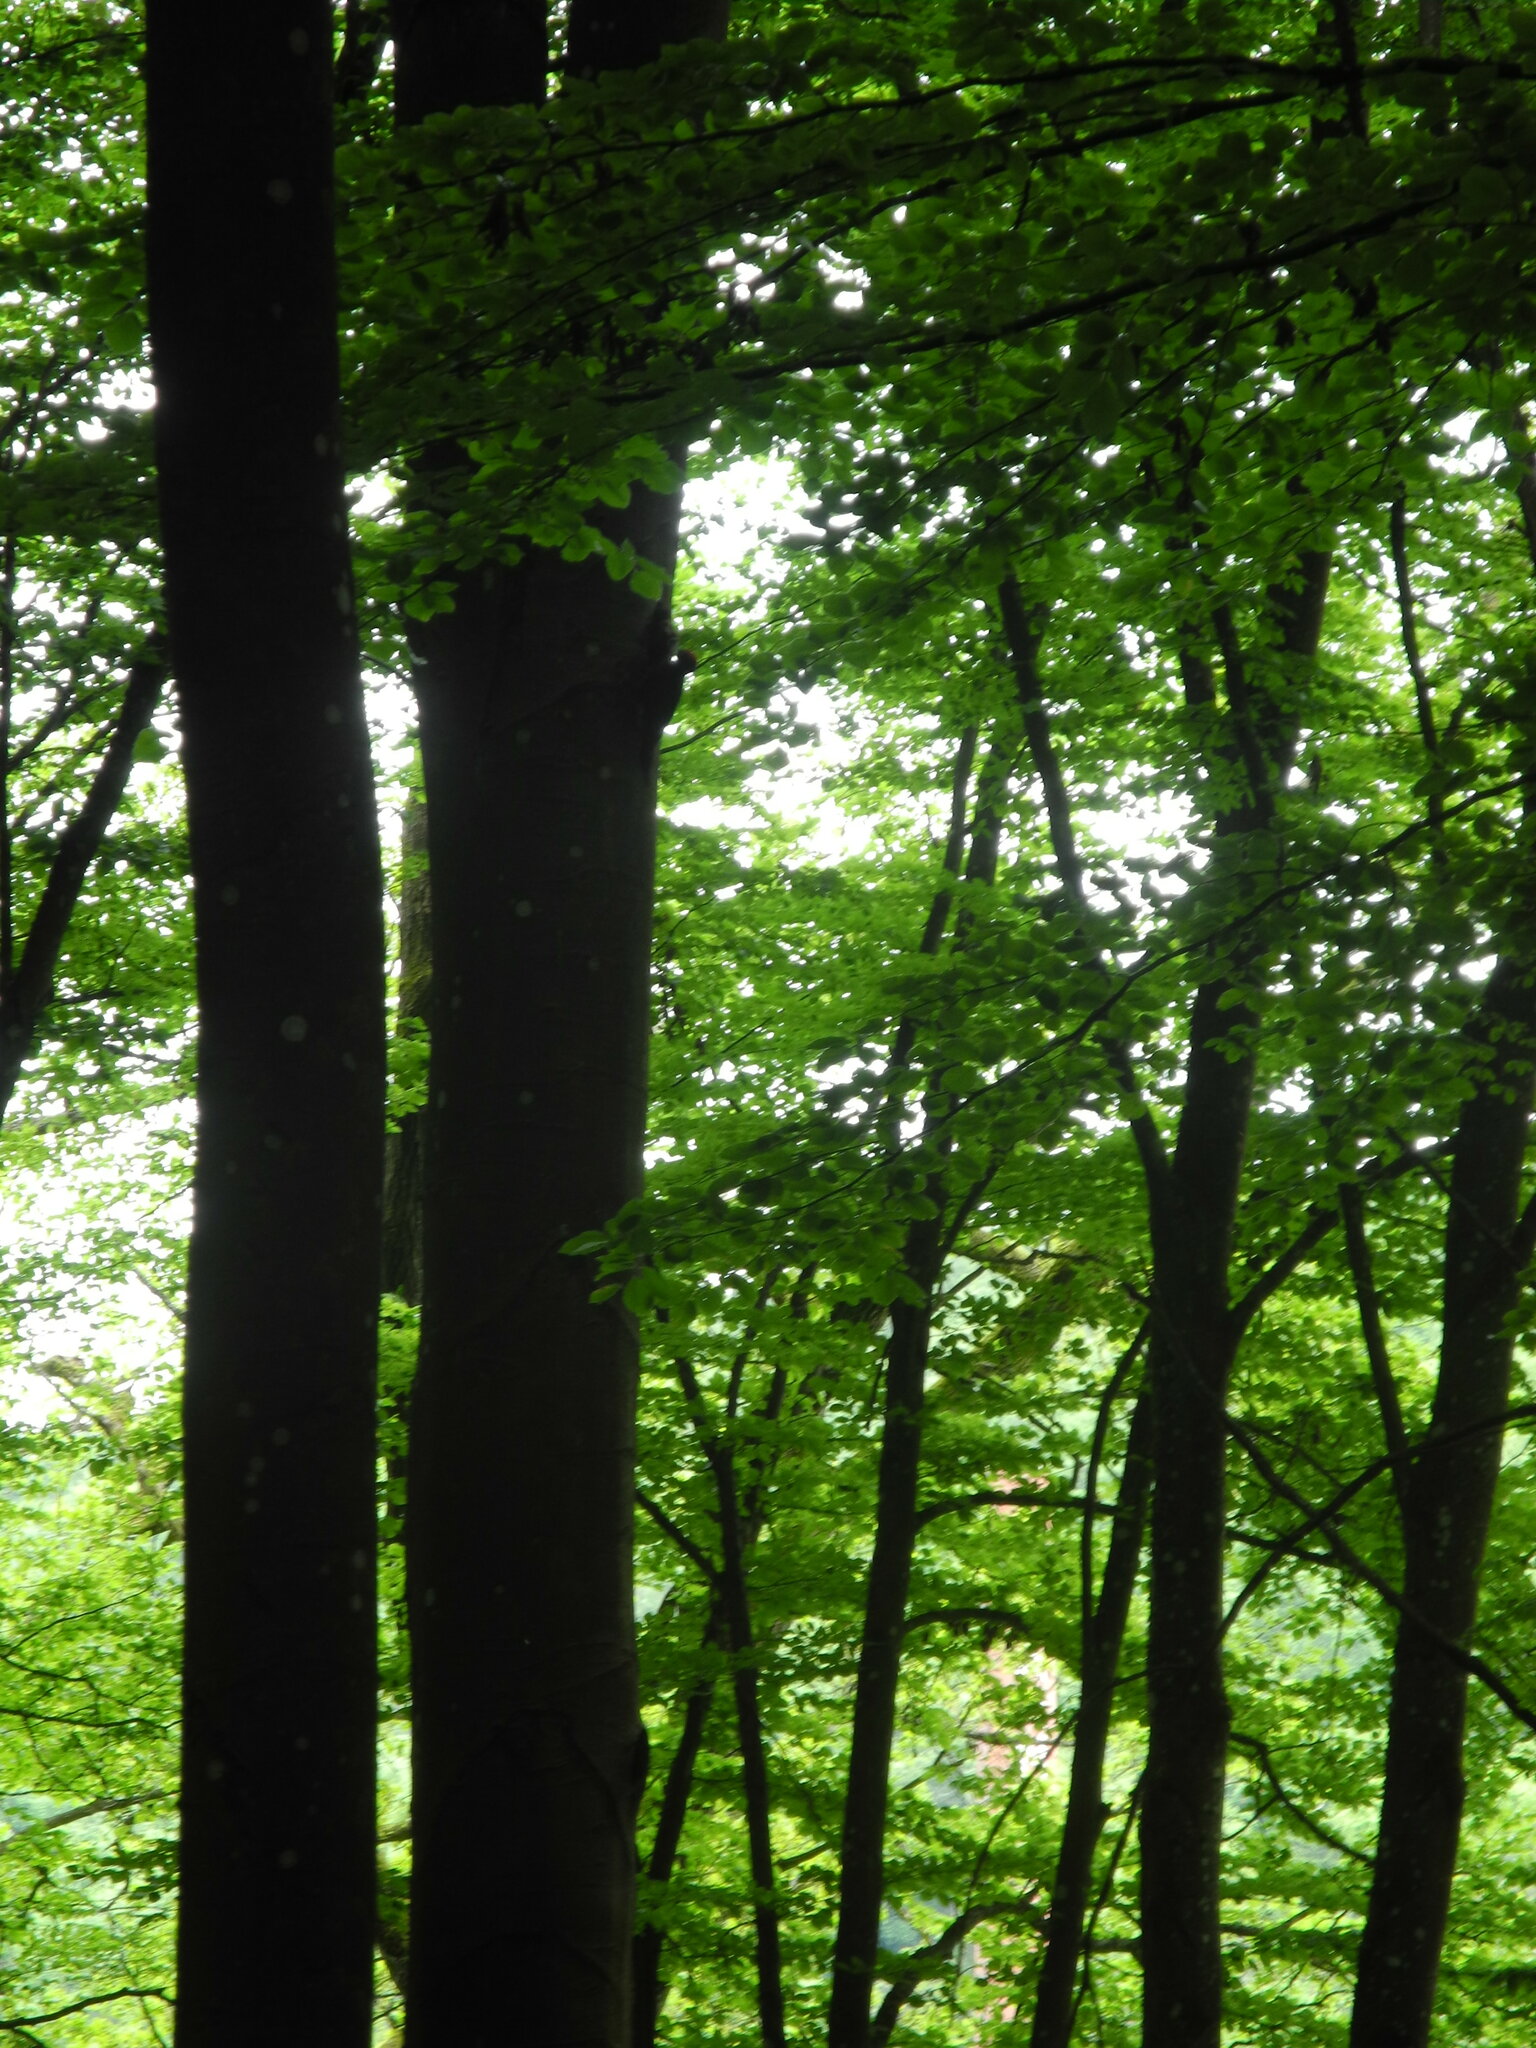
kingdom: Animalia
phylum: Chordata
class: Aves
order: Piciformes
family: Picidae
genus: Dryocopus
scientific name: Dryocopus martius
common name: Black woodpecker
